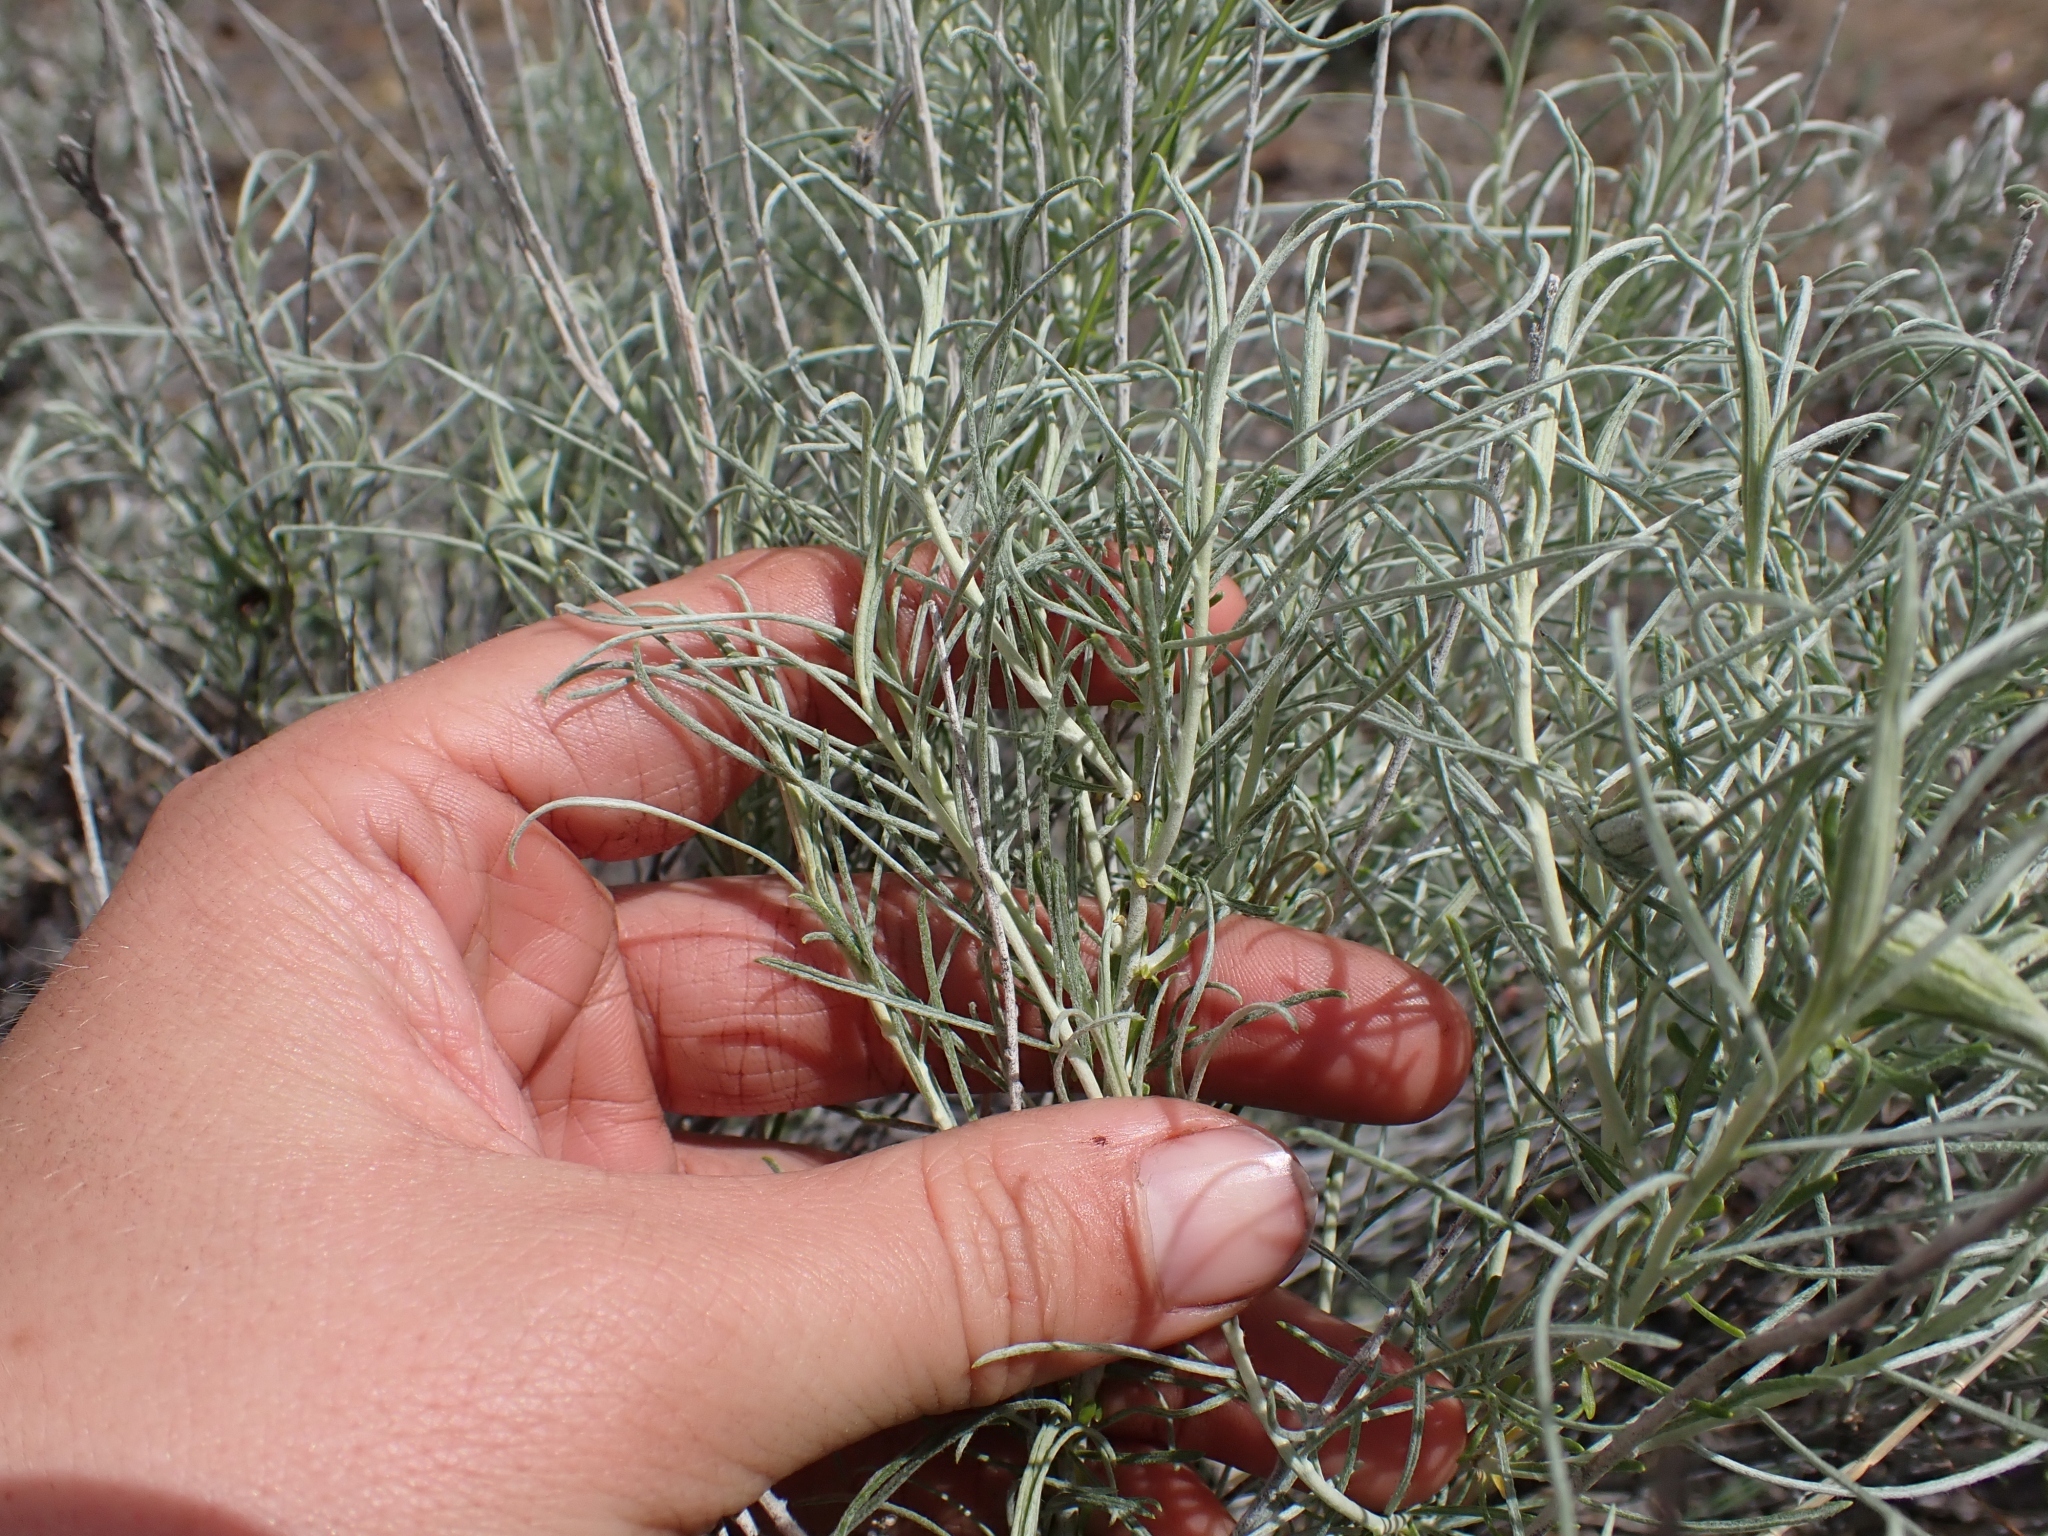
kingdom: Plantae
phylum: Tracheophyta
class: Magnoliopsida
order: Asterales
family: Asteraceae
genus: Ericameria
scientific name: Ericameria nauseosa
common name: Rubber rabbitbrush
